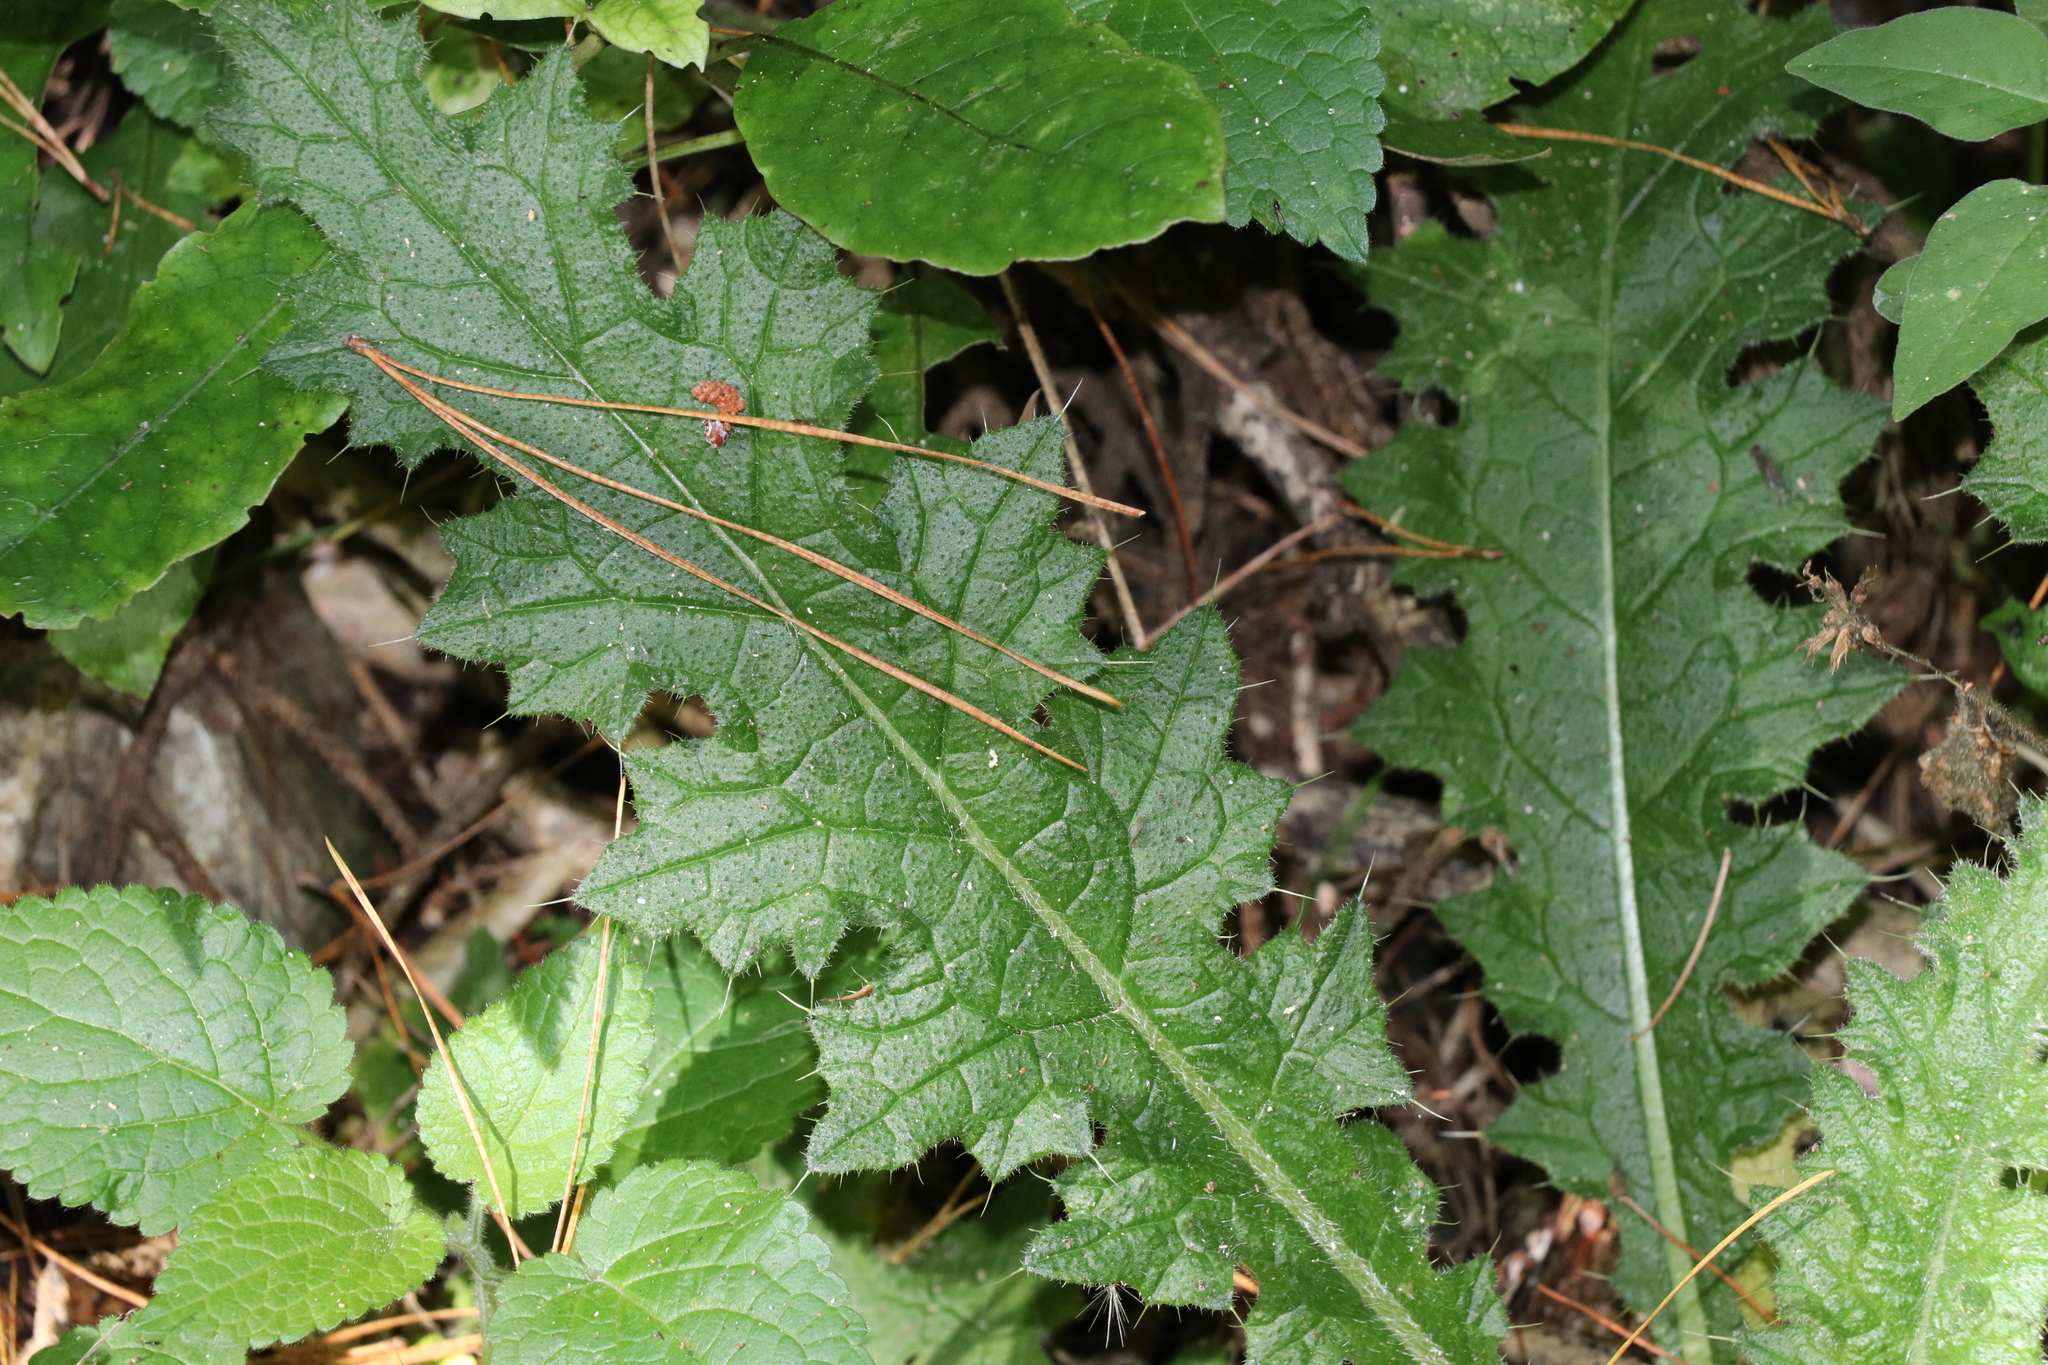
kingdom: Plantae
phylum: Tracheophyta
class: Magnoliopsida
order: Asterales
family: Asteraceae
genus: Cirsium
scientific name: Cirsium vulgare
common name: Bull thistle
